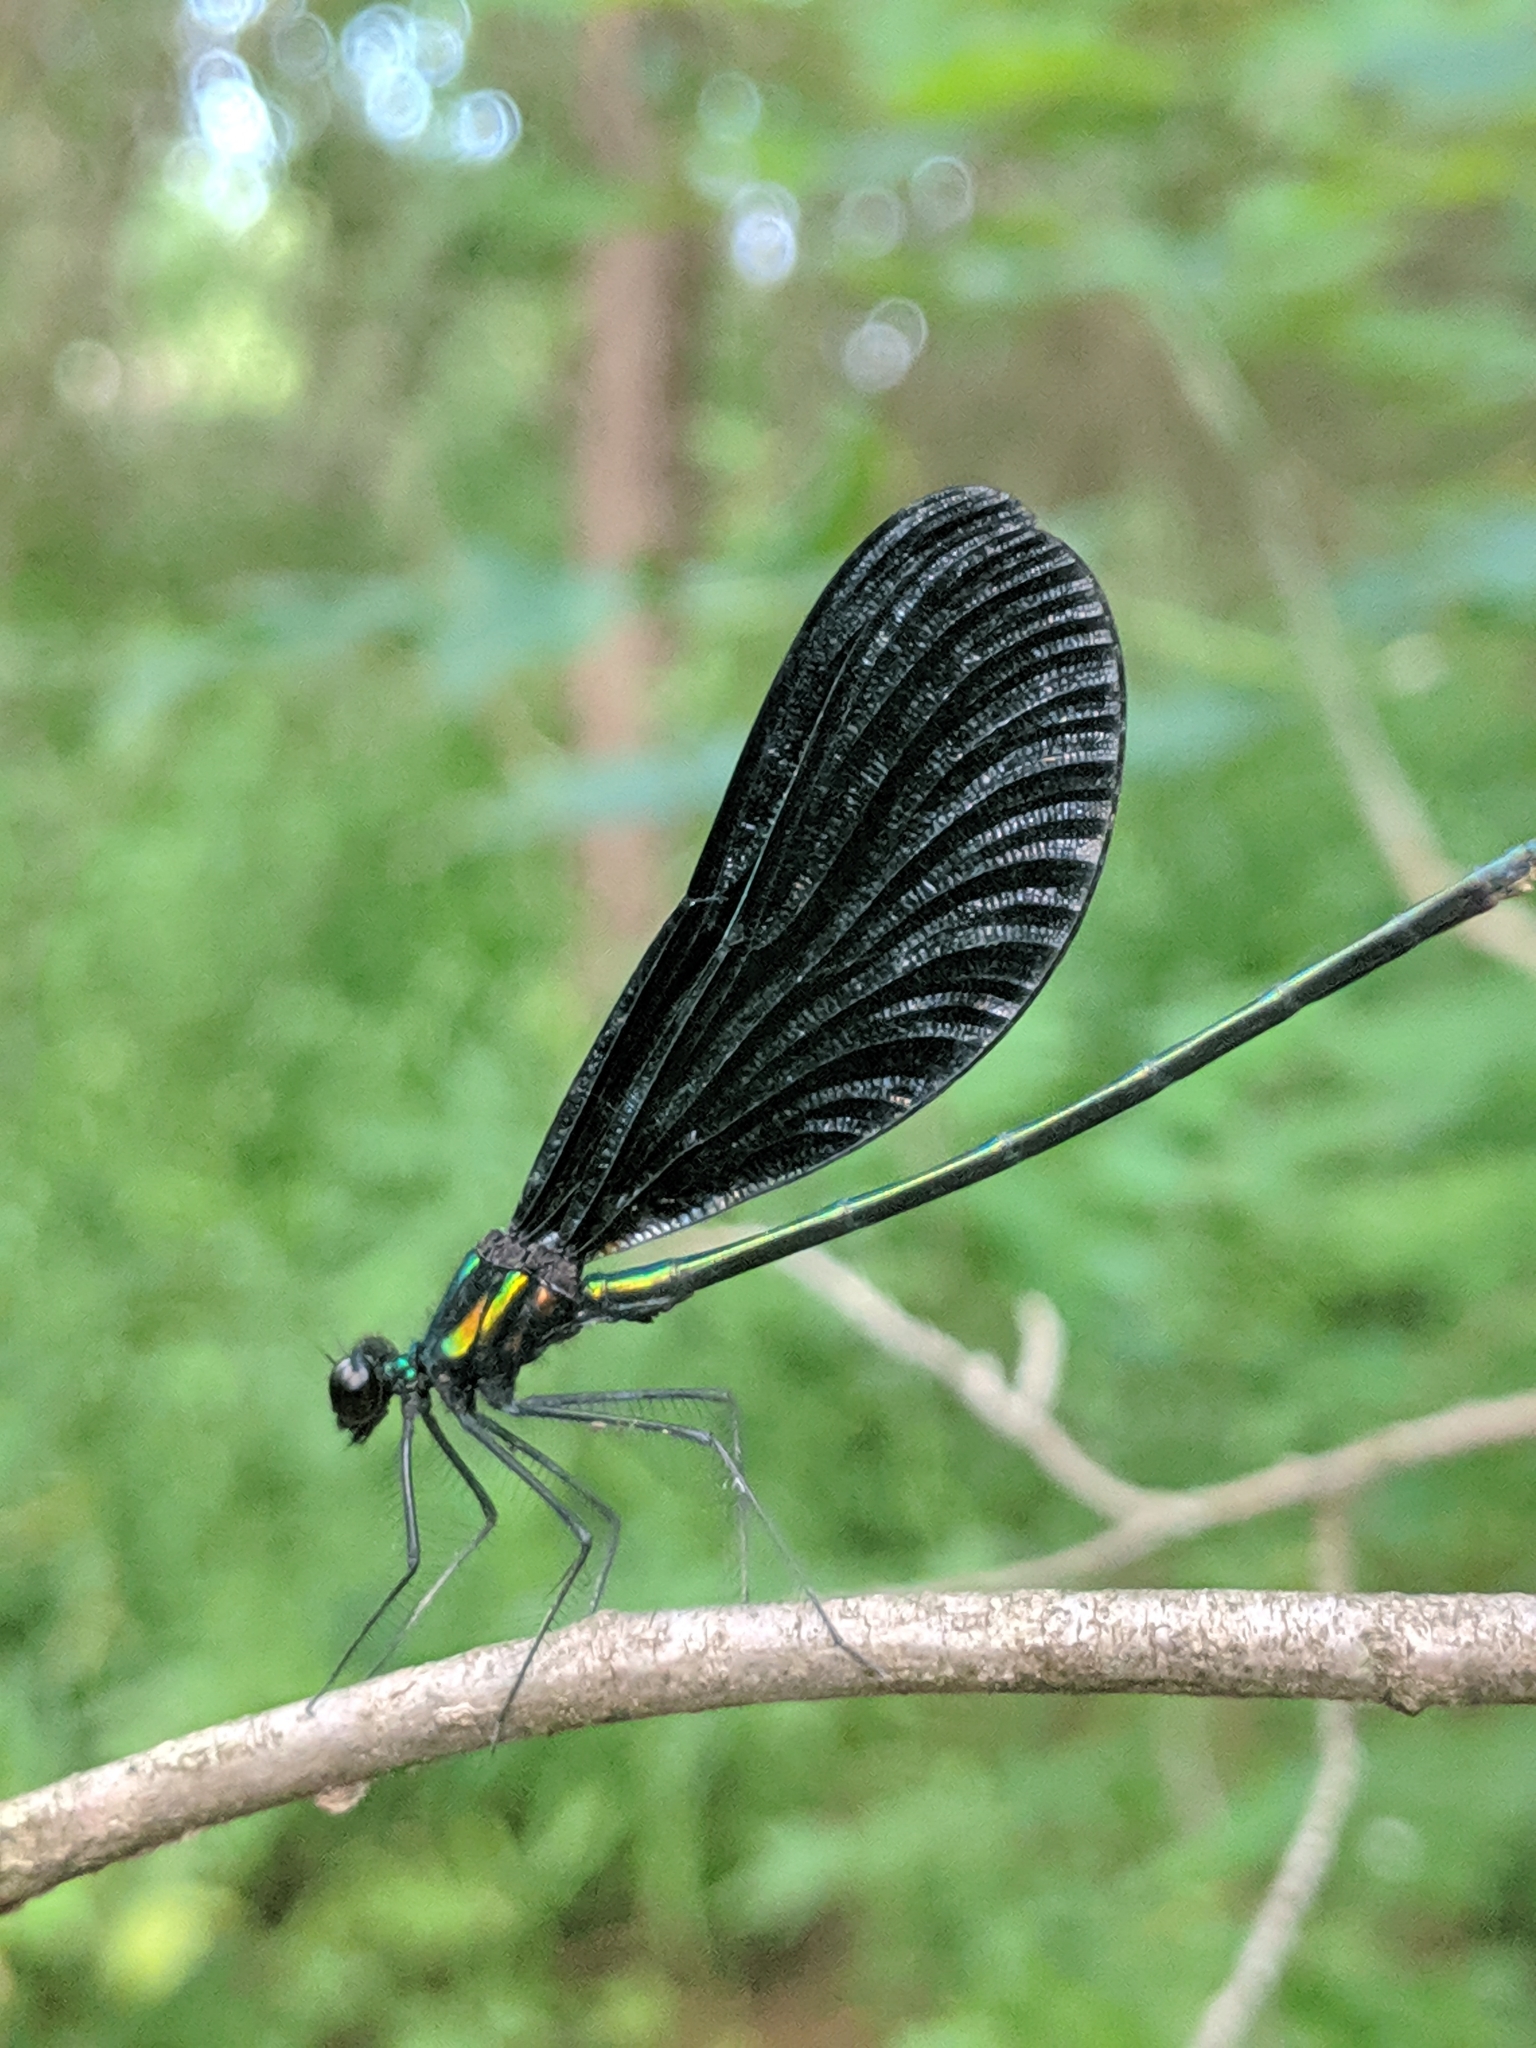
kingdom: Animalia
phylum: Arthropoda
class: Insecta
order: Odonata
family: Calopterygidae
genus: Calopteryx
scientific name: Calopteryx maculata
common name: Ebony jewelwing
